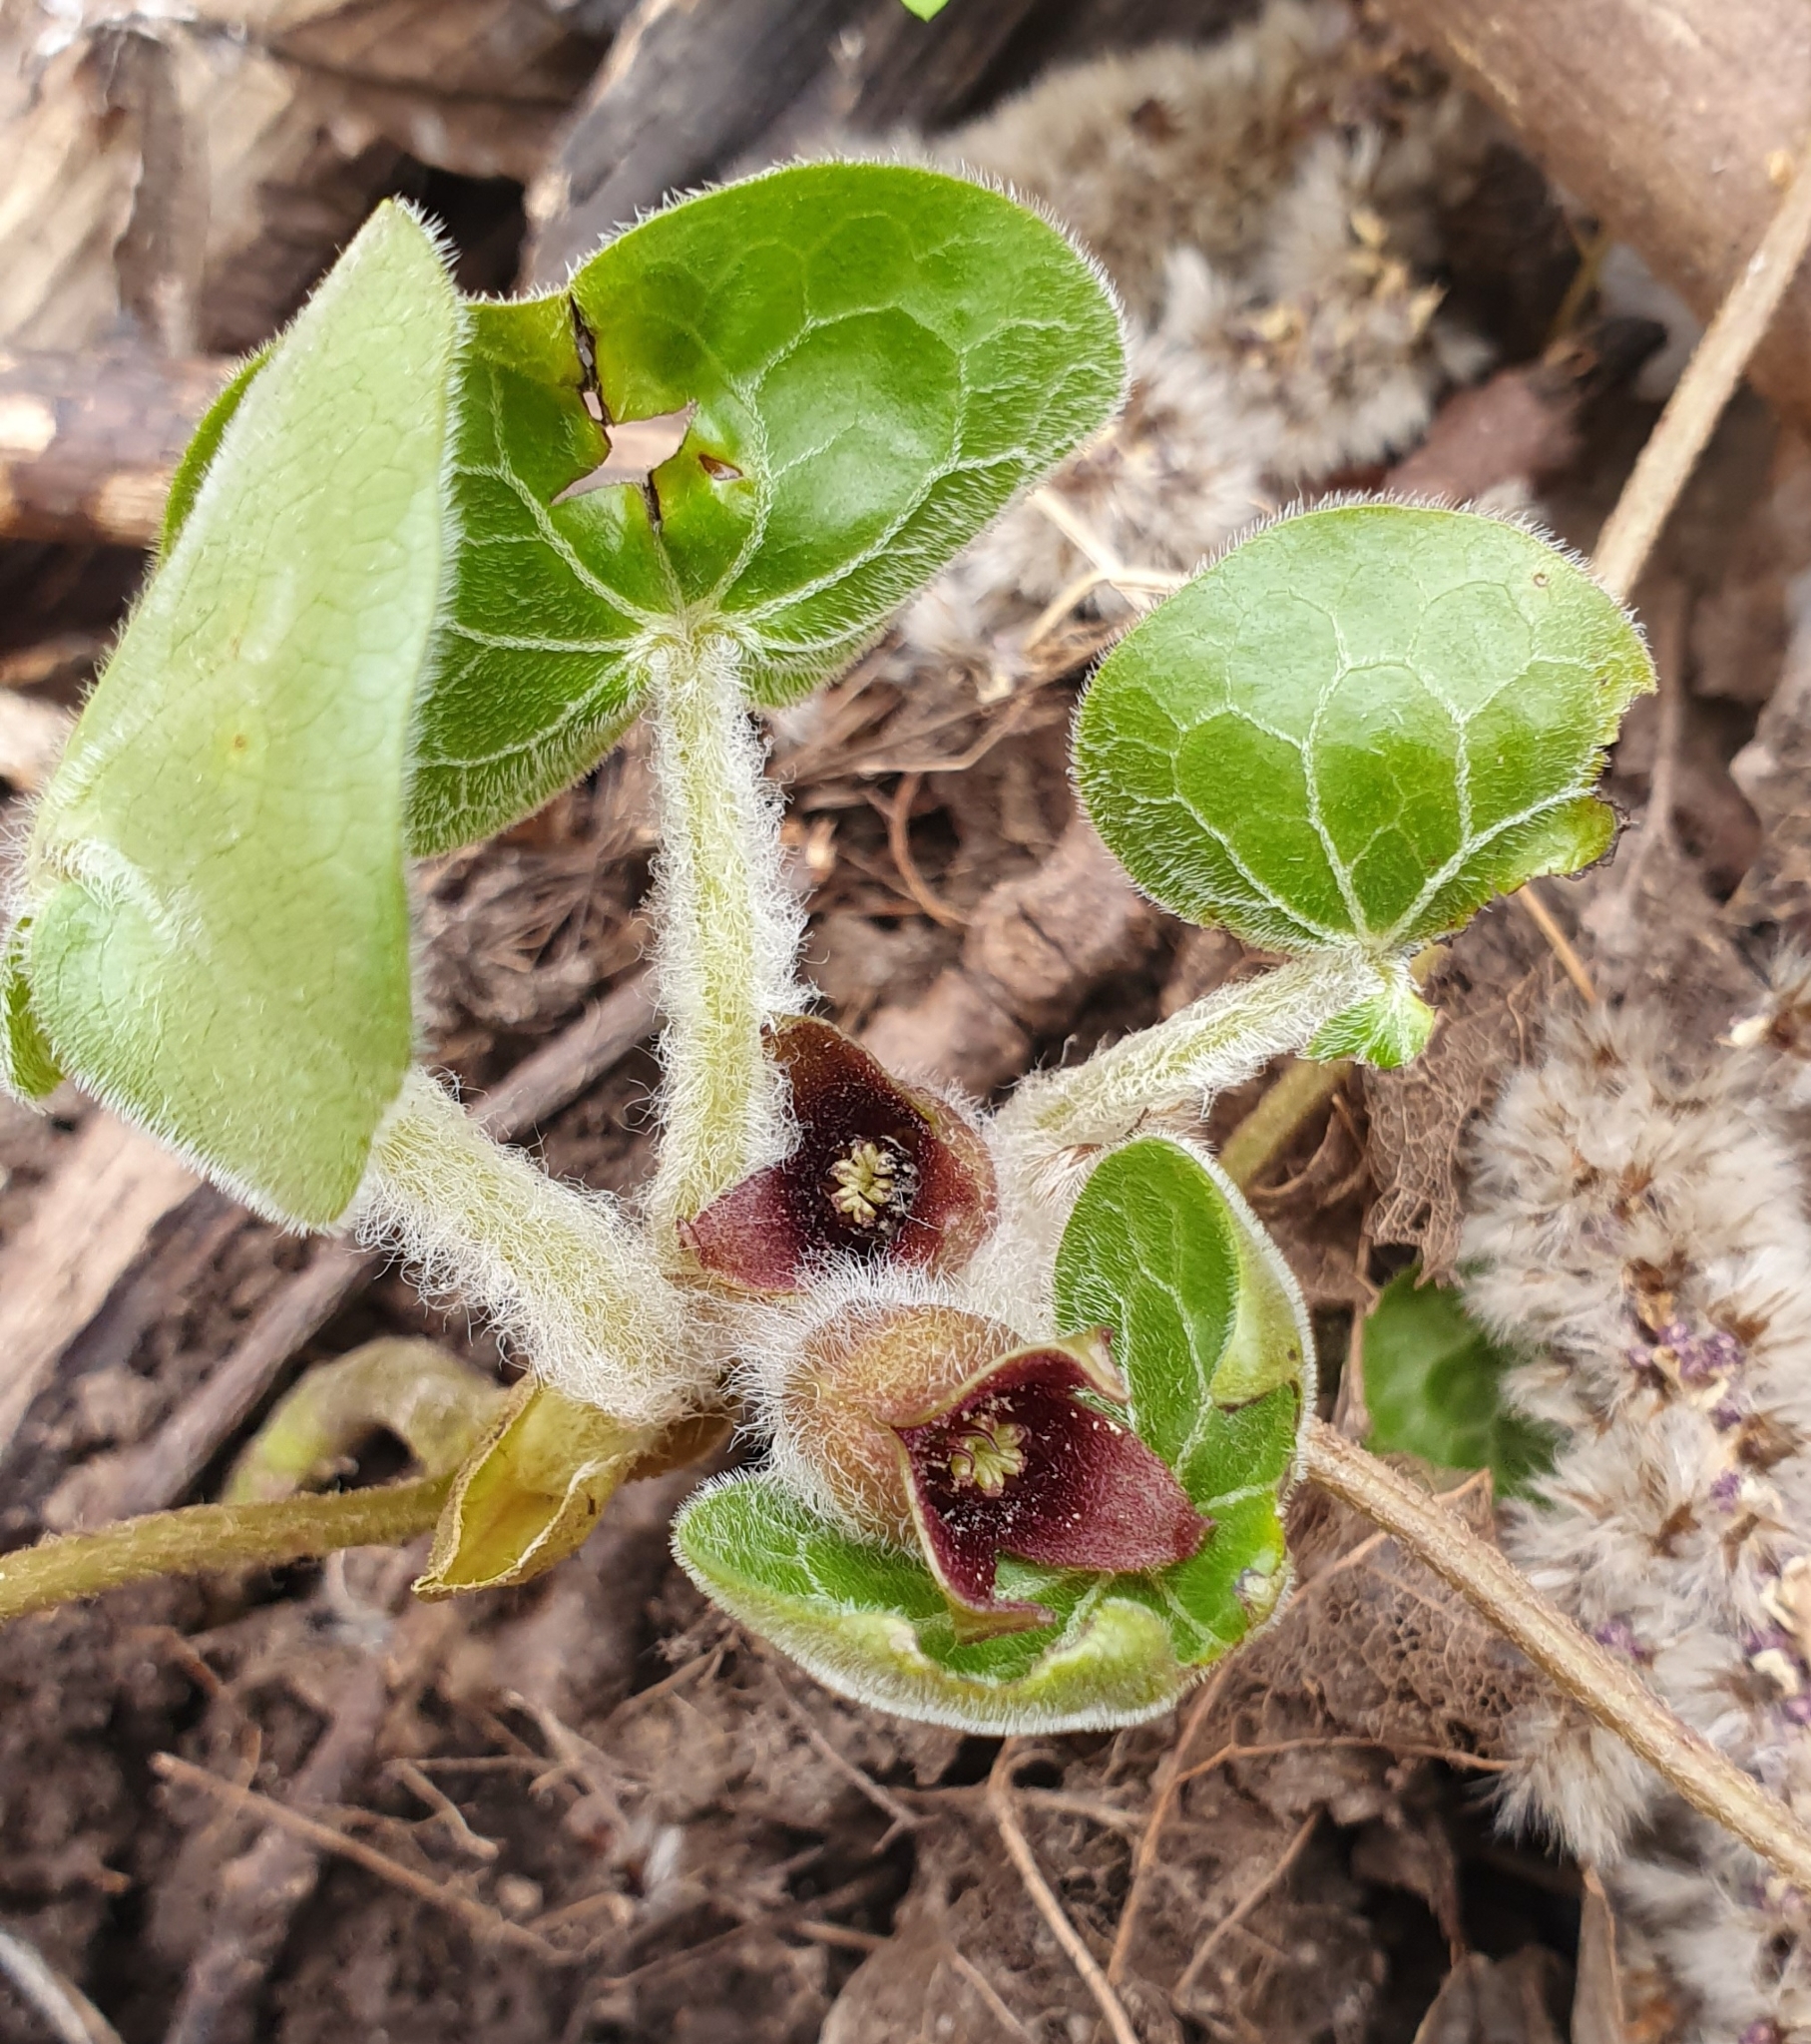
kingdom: Plantae
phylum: Tracheophyta
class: Magnoliopsida
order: Piperales
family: Aristolochiaceae
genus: Asarum
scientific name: Asarum europaeum
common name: Asarabacca
